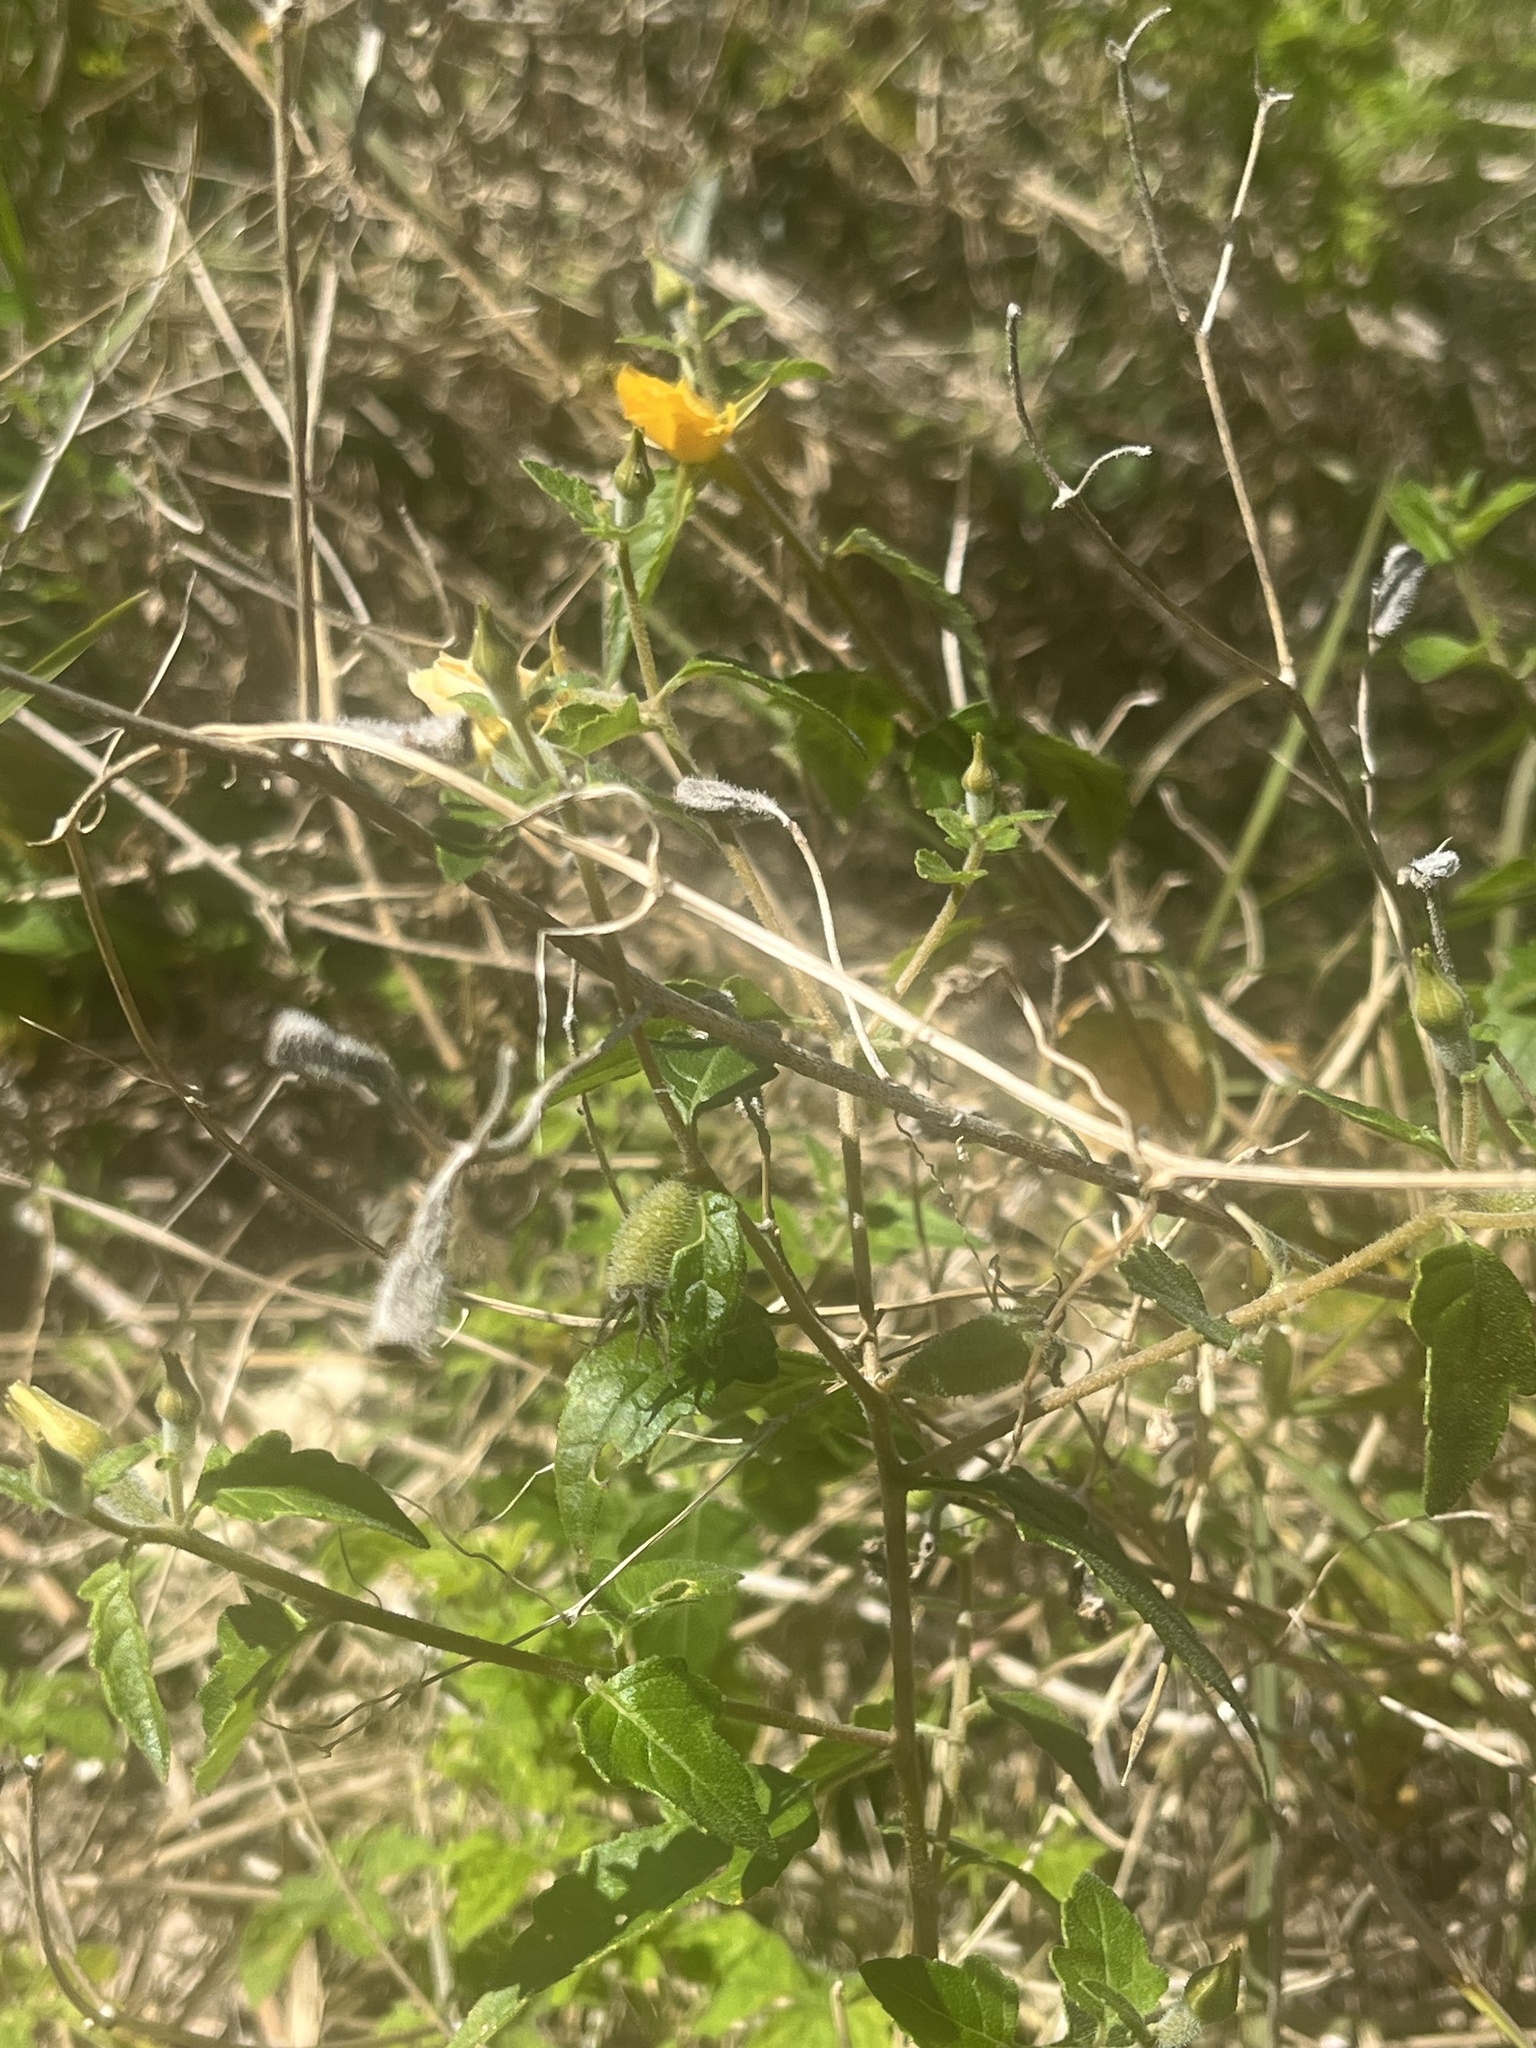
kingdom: Plantae
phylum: Tracheophyta
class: Magnoliopsida
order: Cornales
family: Loasaceae
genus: Mentzelia
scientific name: Mentzelia floridana
